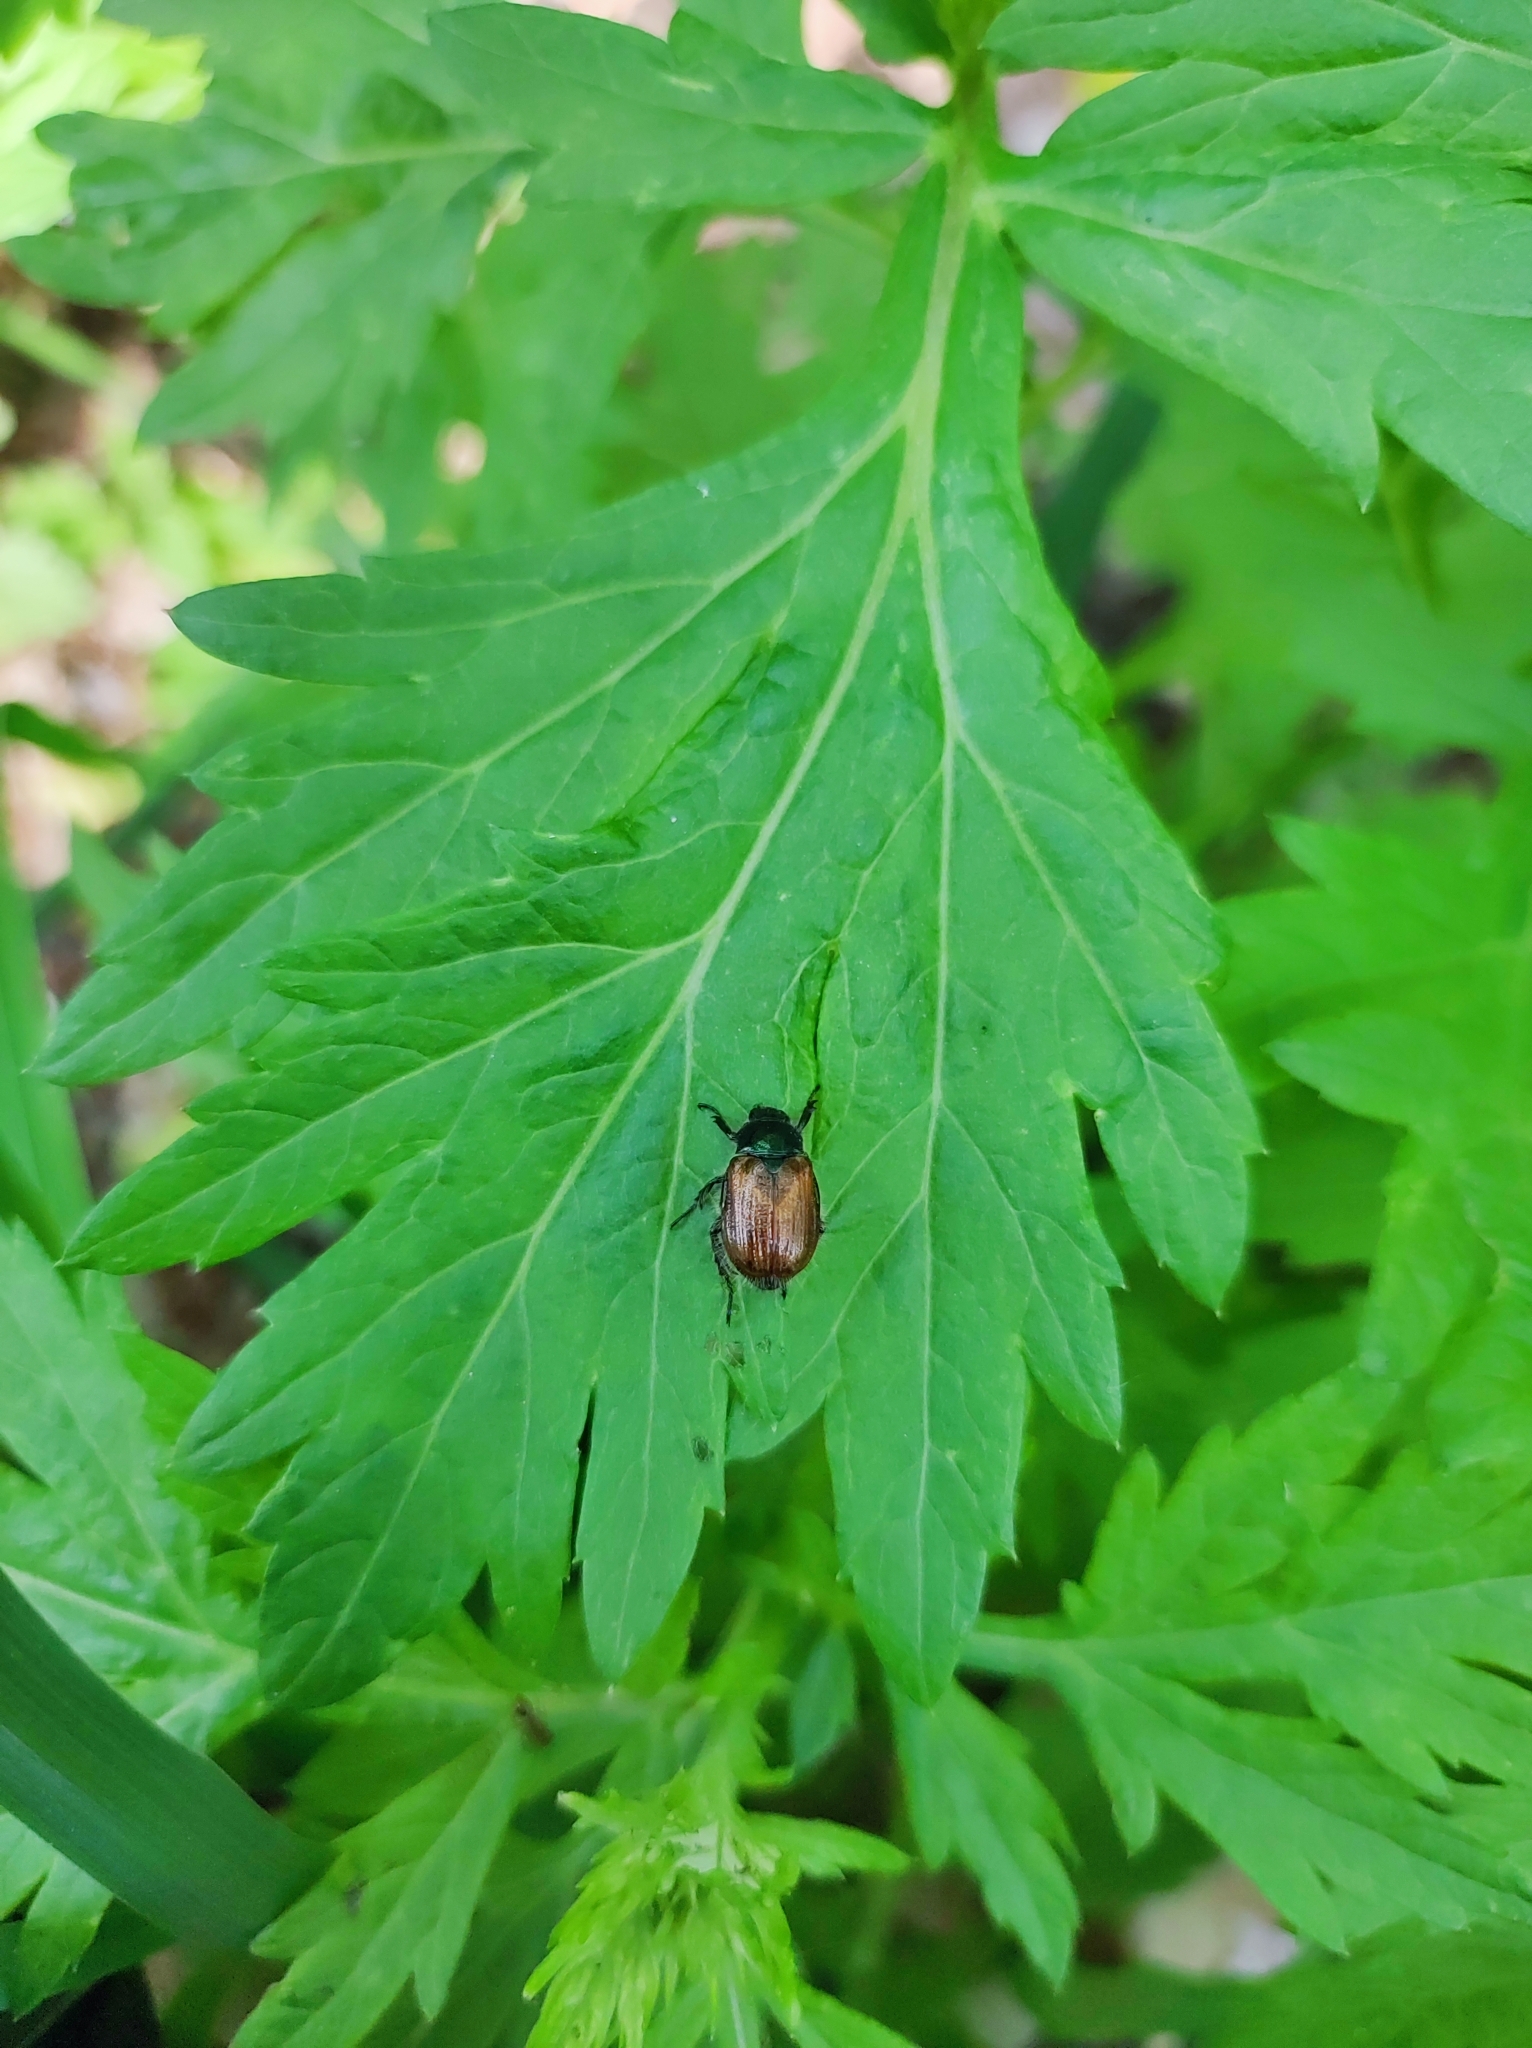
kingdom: Animalia
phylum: Arthropoda
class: Insecta
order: Coleoptera
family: Scarabaeidae
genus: Phyllopertha
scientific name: Phyllopertha horticola
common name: Garden chafer
